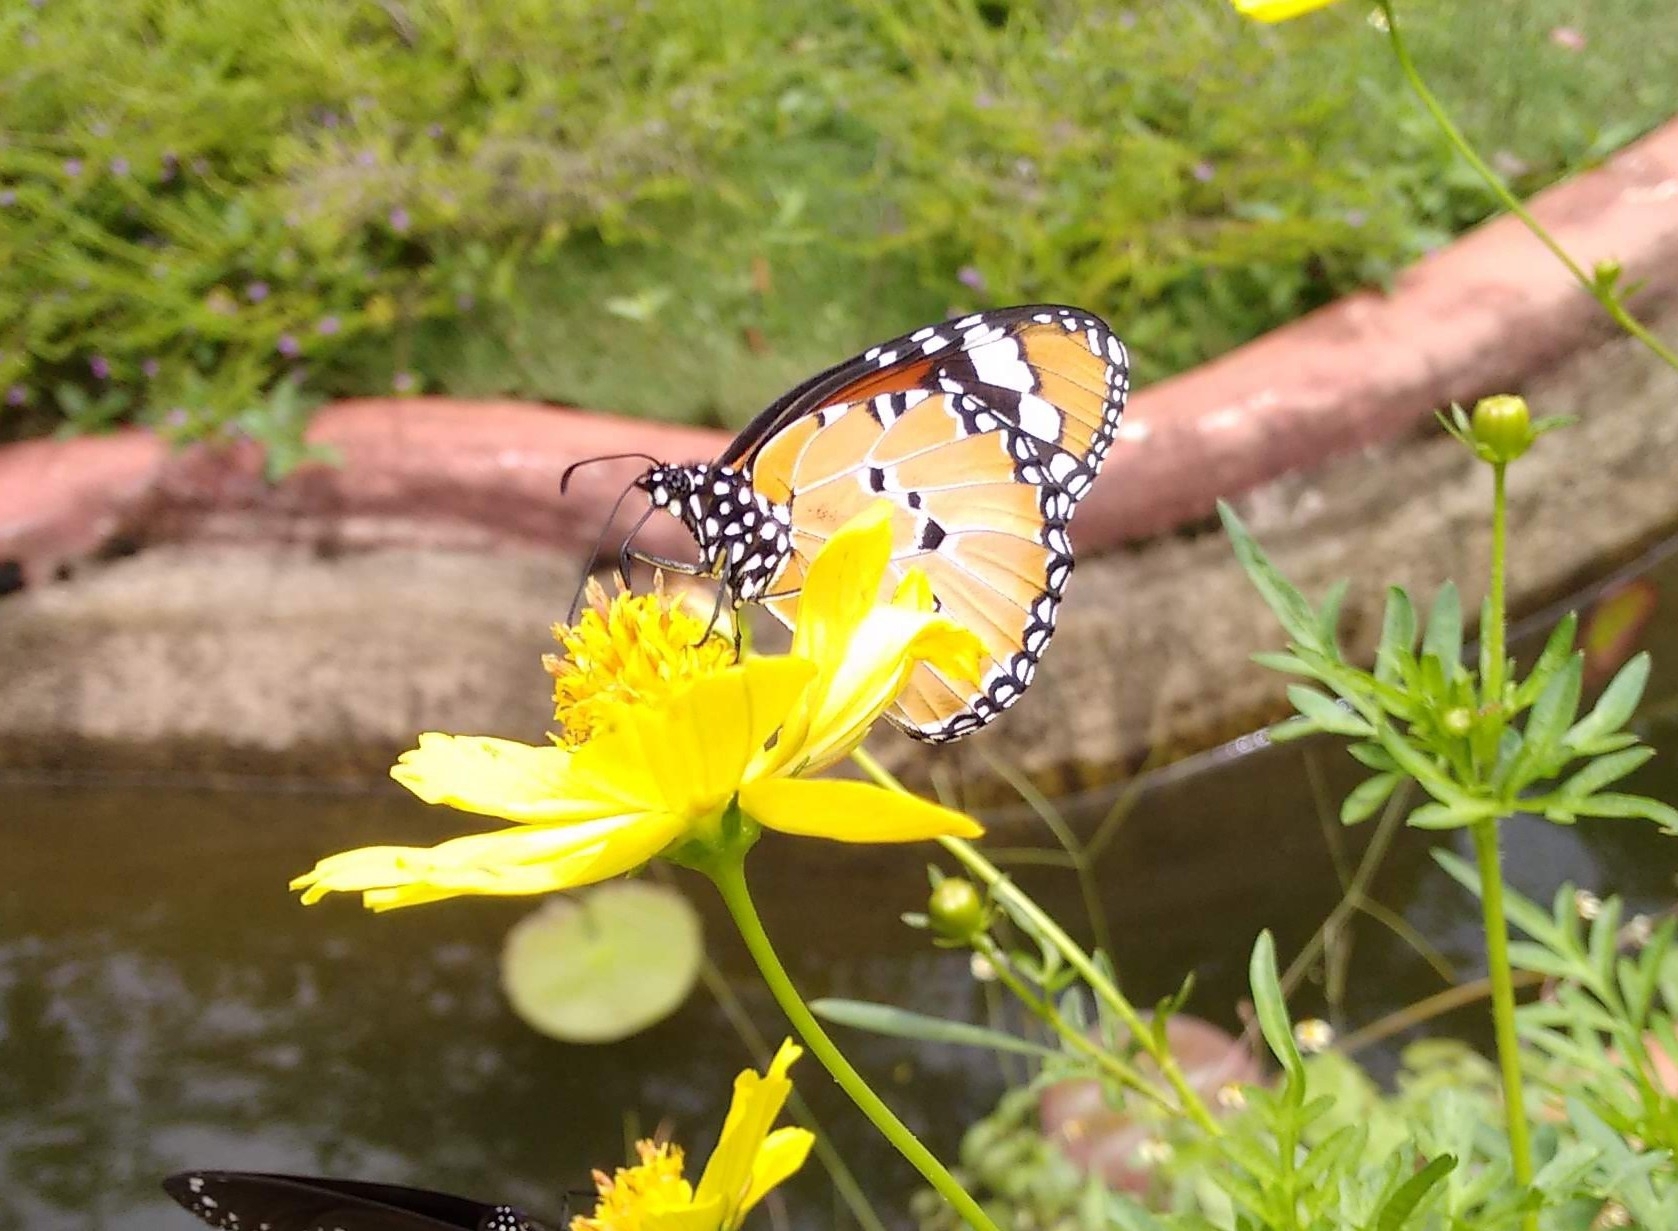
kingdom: Animalia
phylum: Arthropoda
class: Insecta
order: Lepidoptera
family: Nymphalidae
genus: Danaus
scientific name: Danaus chrysippus
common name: Plain tiger
